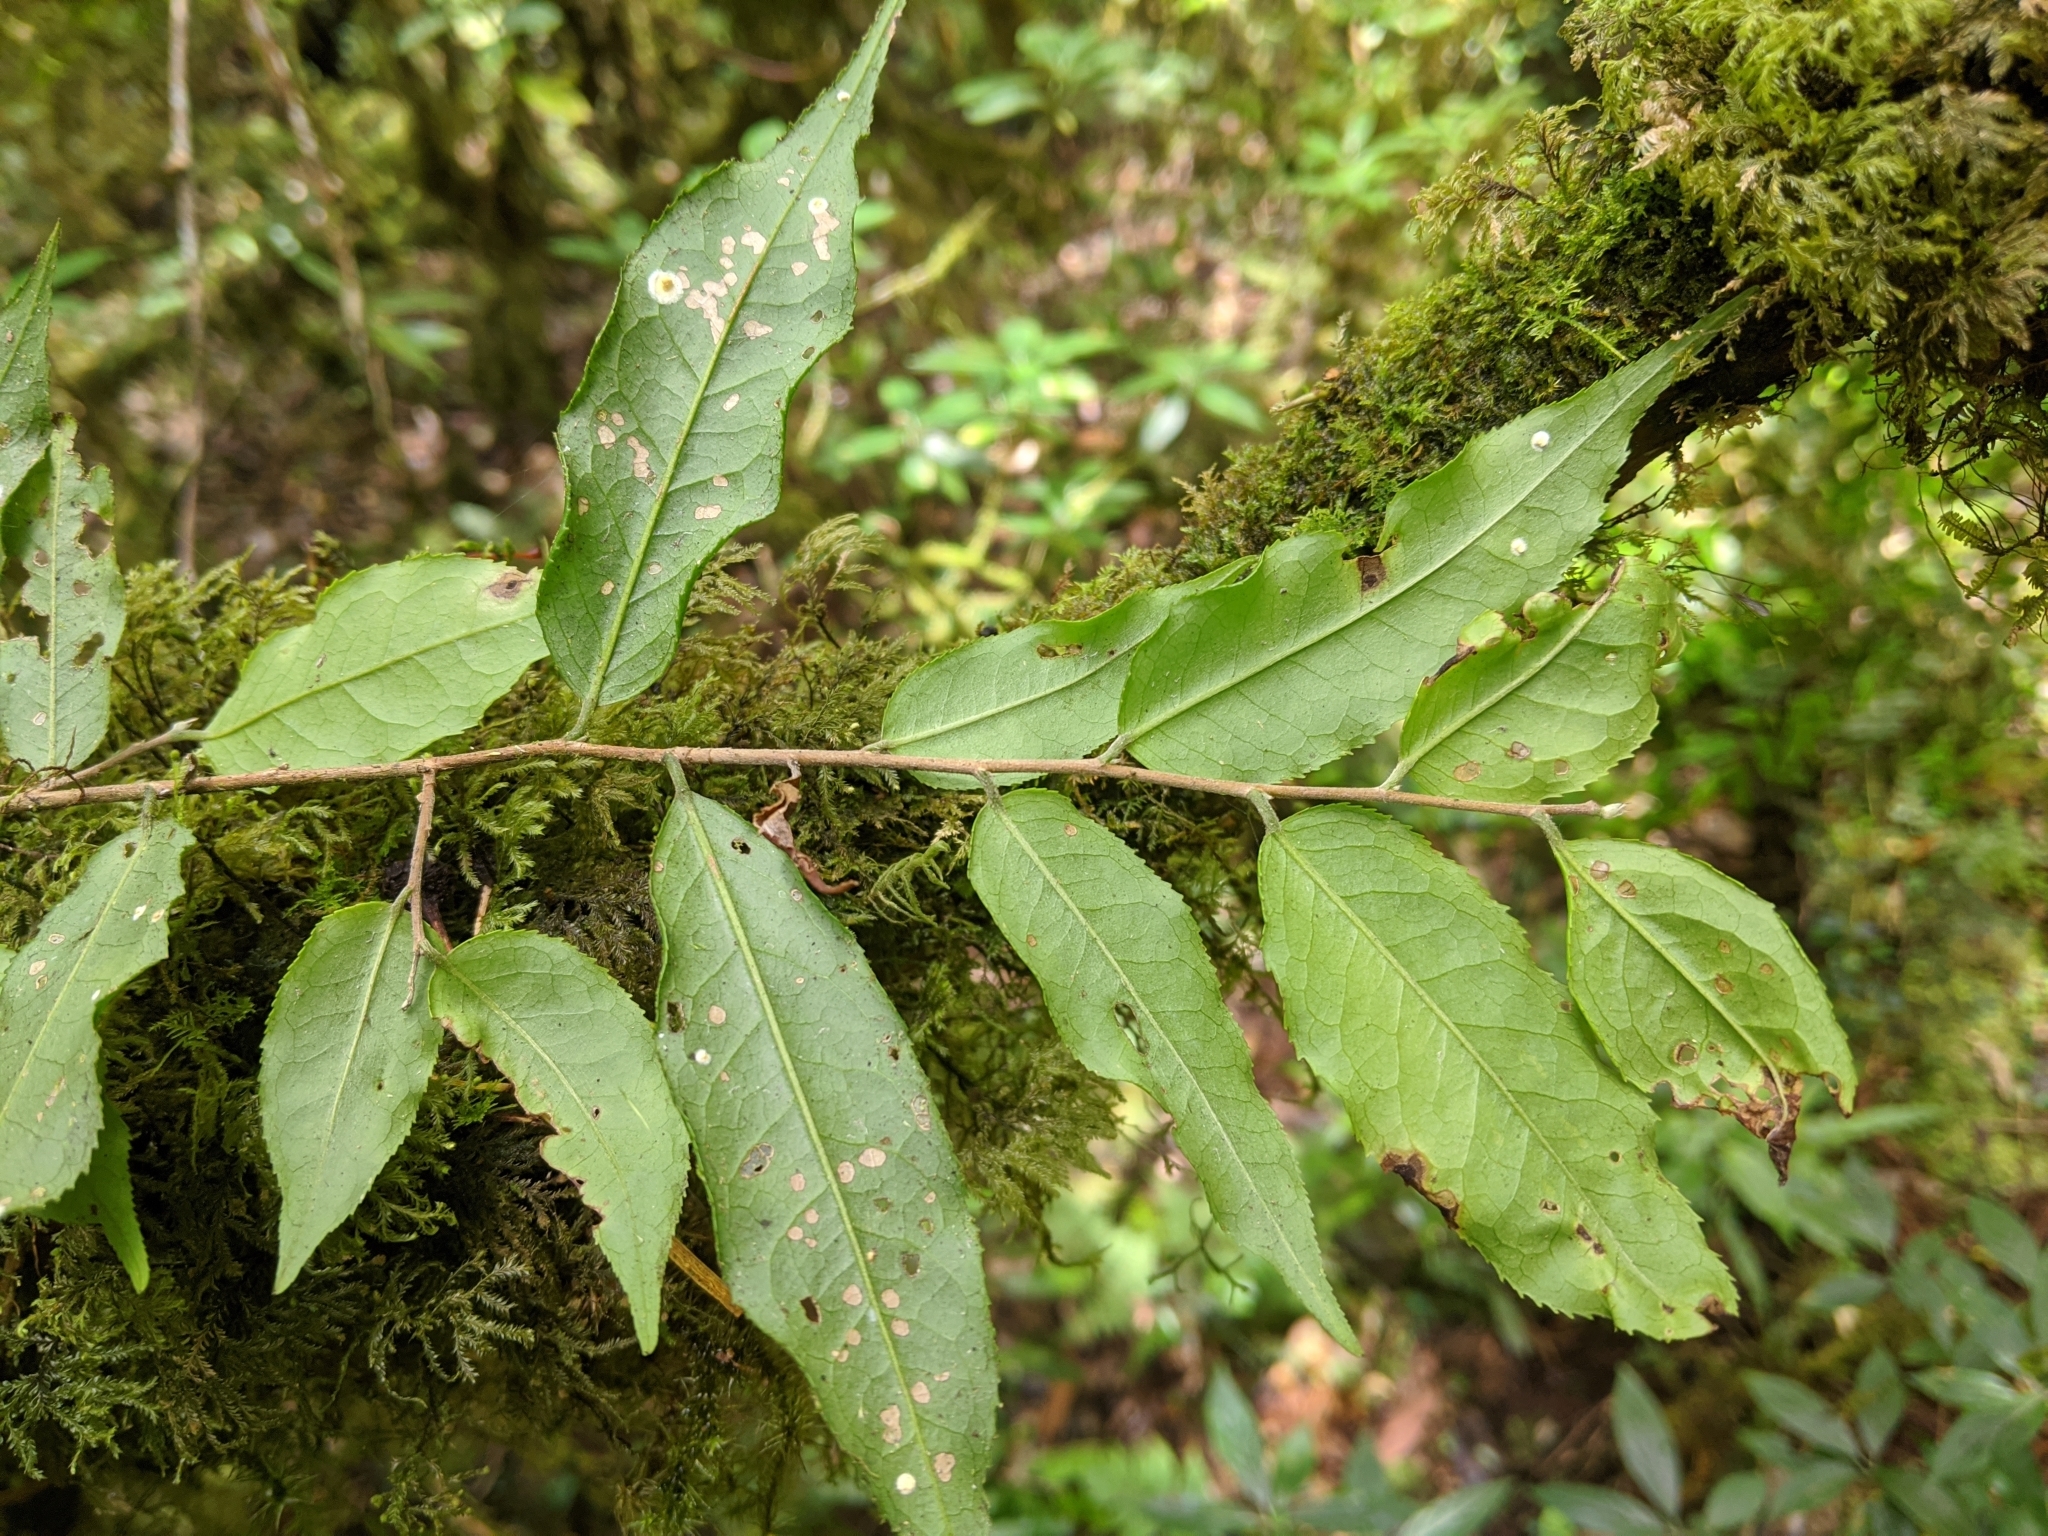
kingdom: Plantae
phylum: Tracheophyta
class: Magnoliopsida
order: Ericales
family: Theaceae
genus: Camellia
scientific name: Camellia caudata
